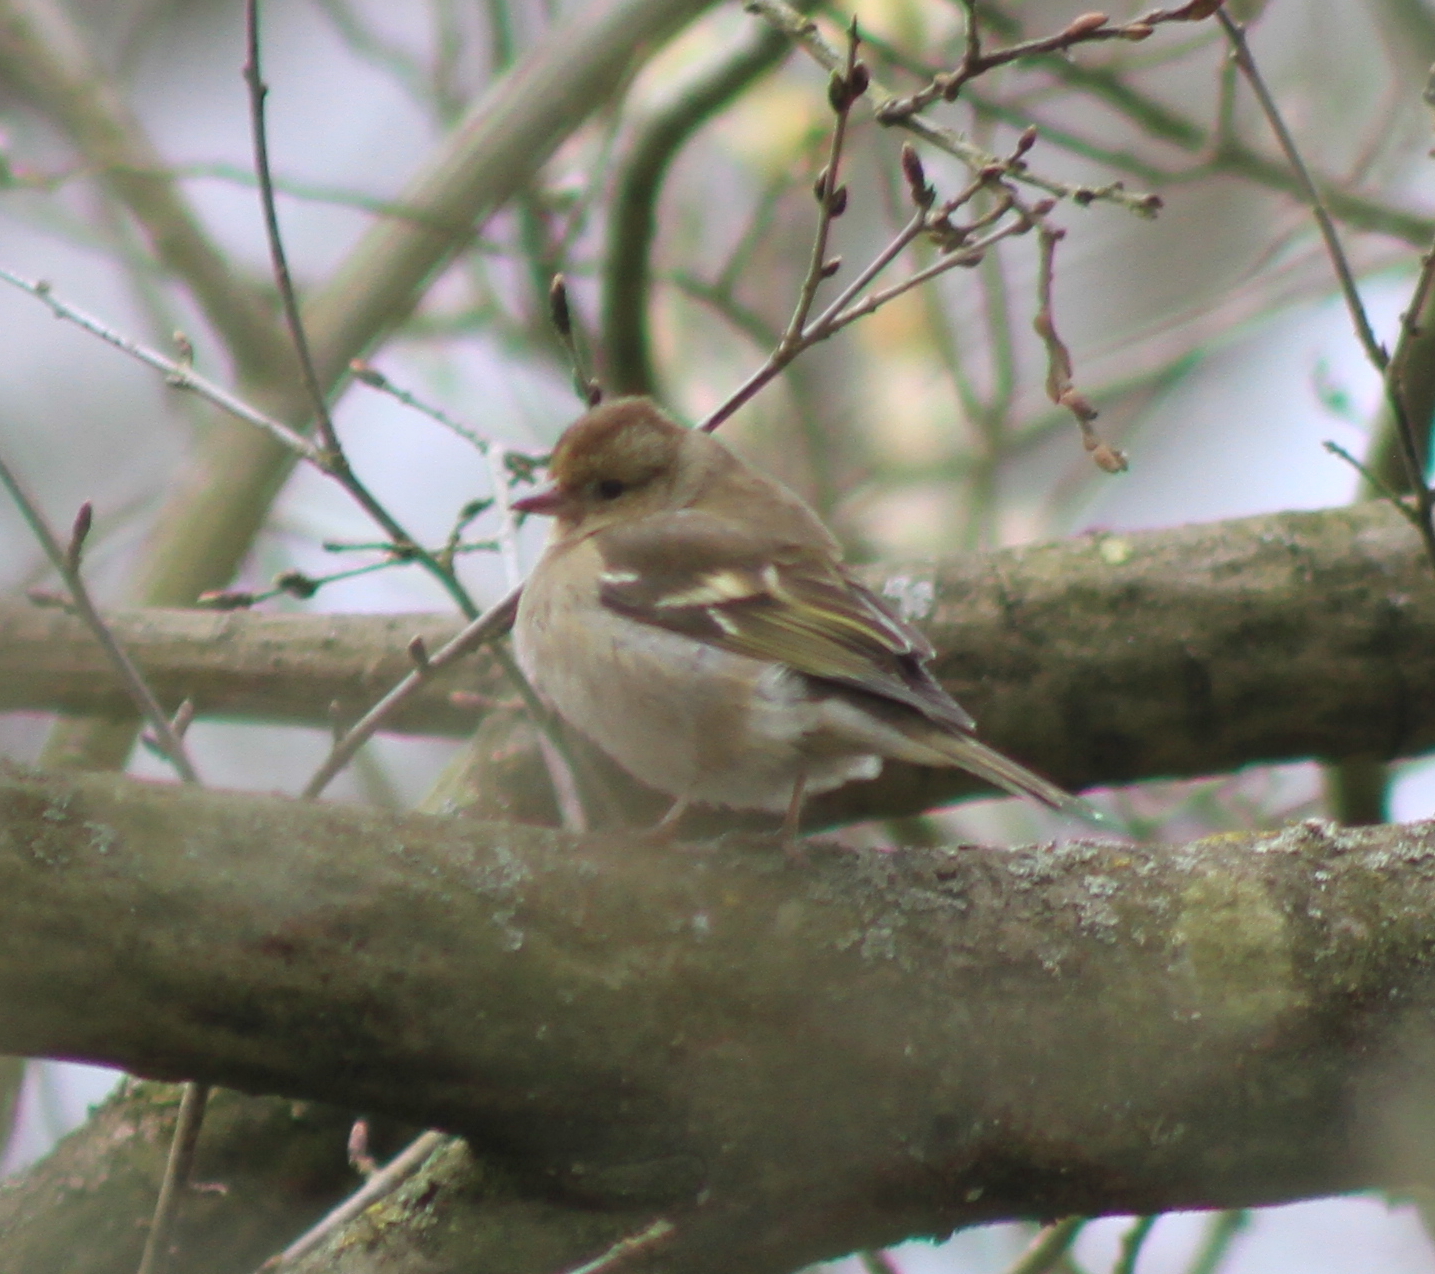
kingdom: Animalia
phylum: Chordata
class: Aves
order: Passeriformes
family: Fringillidae
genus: Fringilla
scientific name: Fringilla coelebs
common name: Common chaffinch
